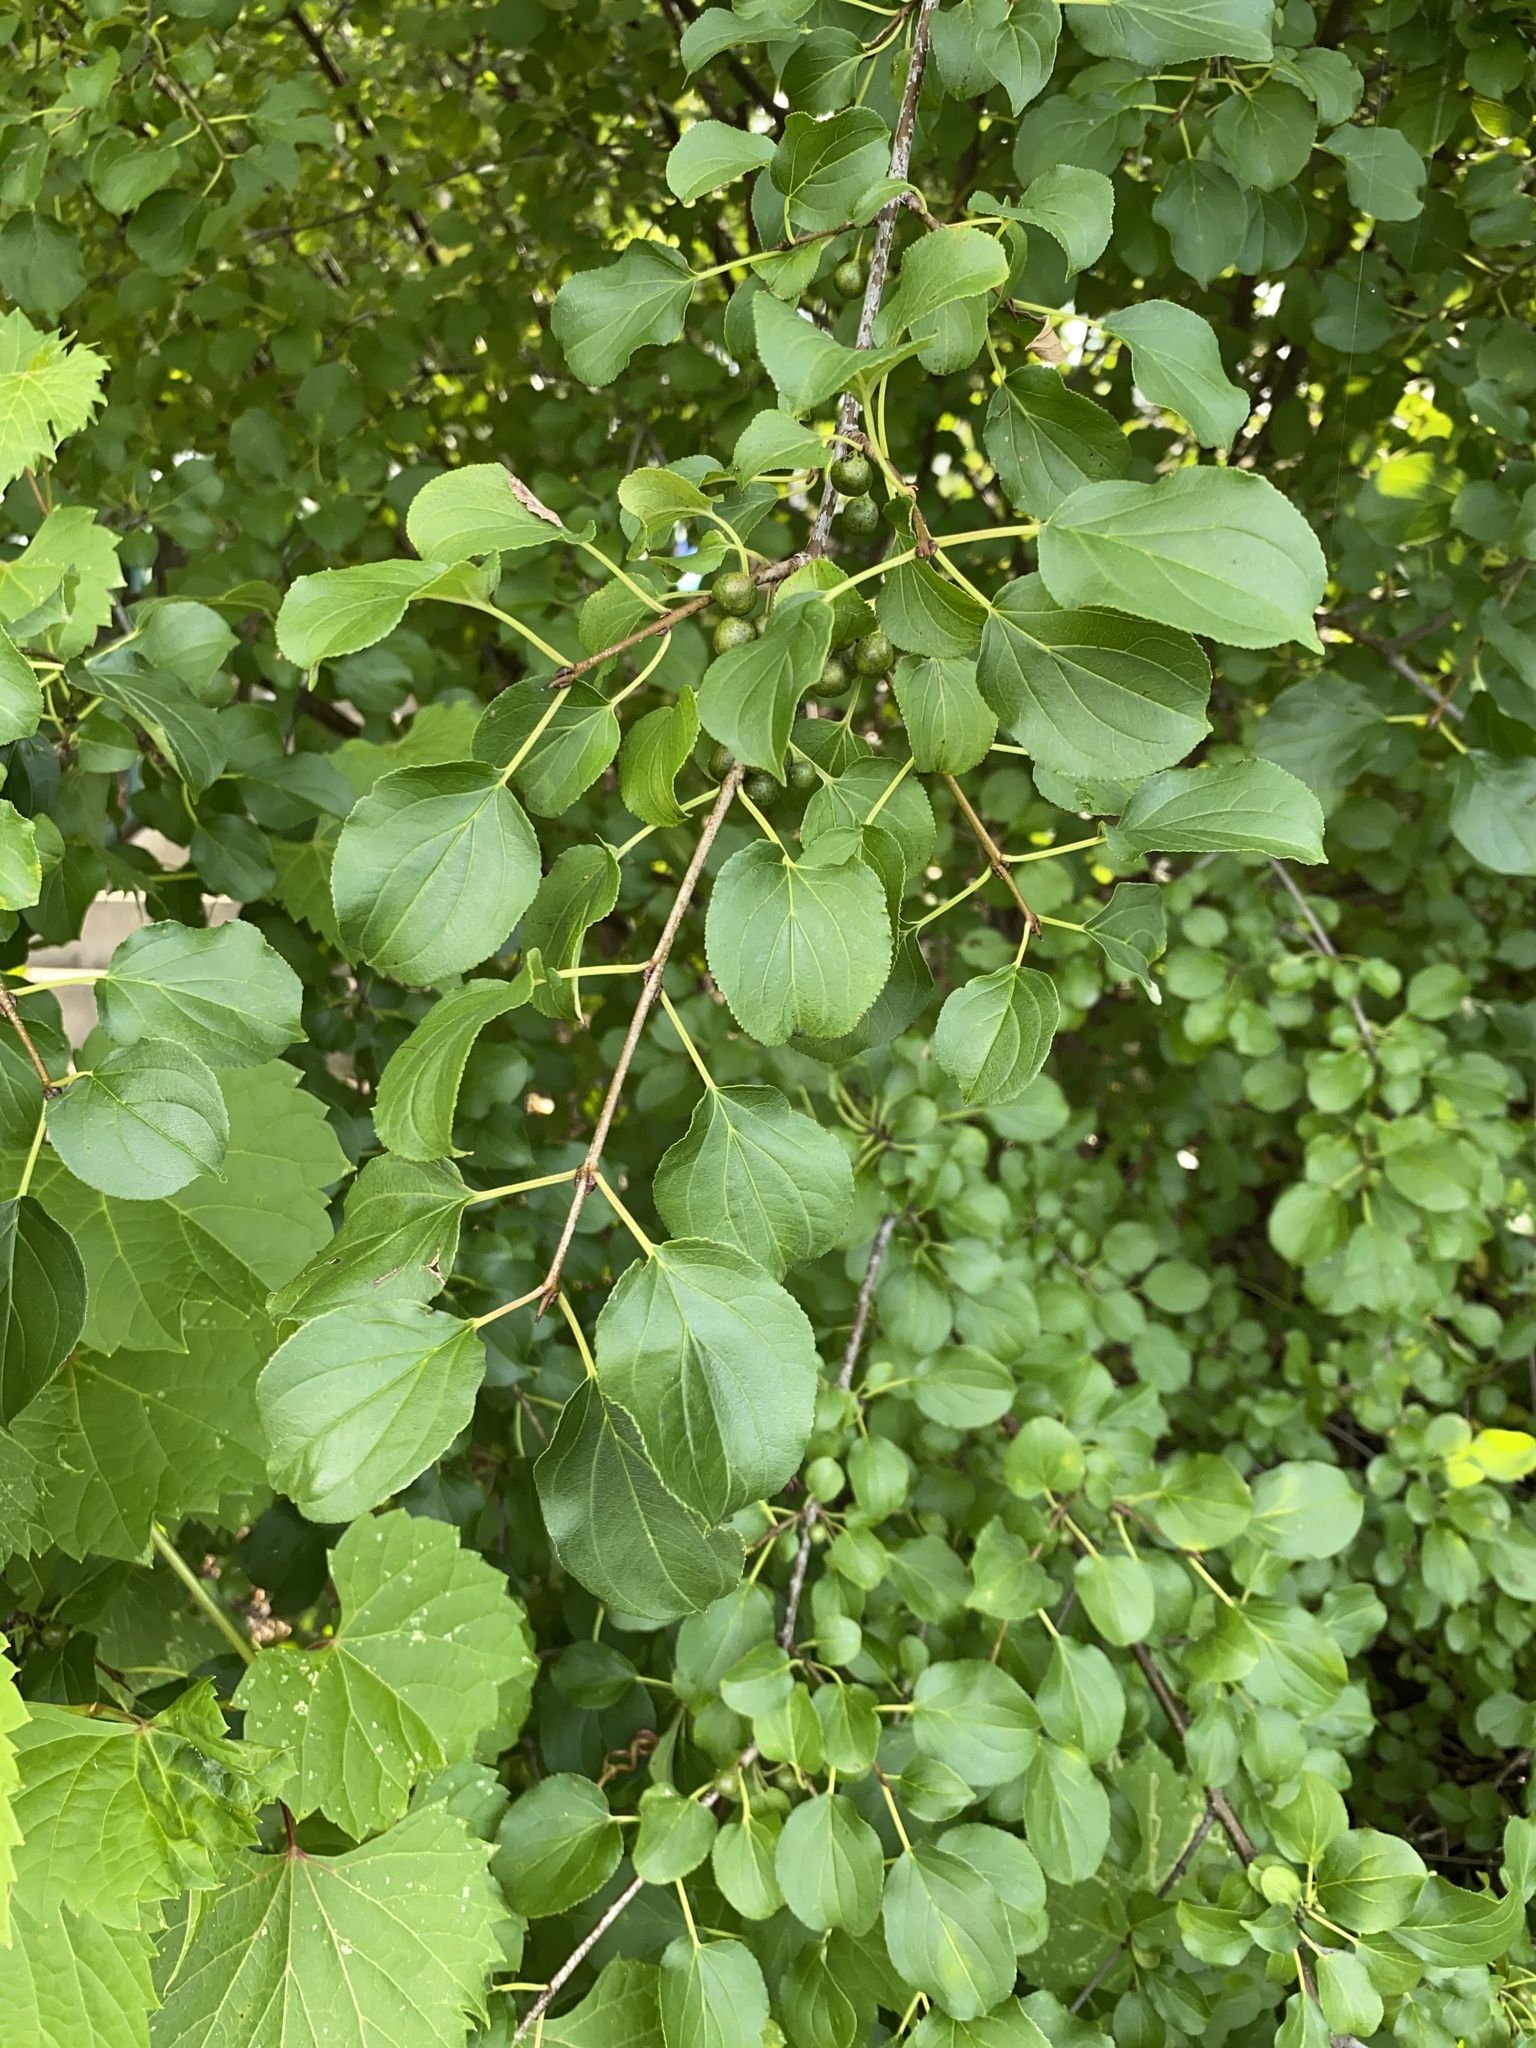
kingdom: Plantae
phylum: Tracheophyta
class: Magnoliopsida
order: Rosales
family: Rhamnaceae
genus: Rhamnus
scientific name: Rhamnus cathartica
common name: Common buckthorn
